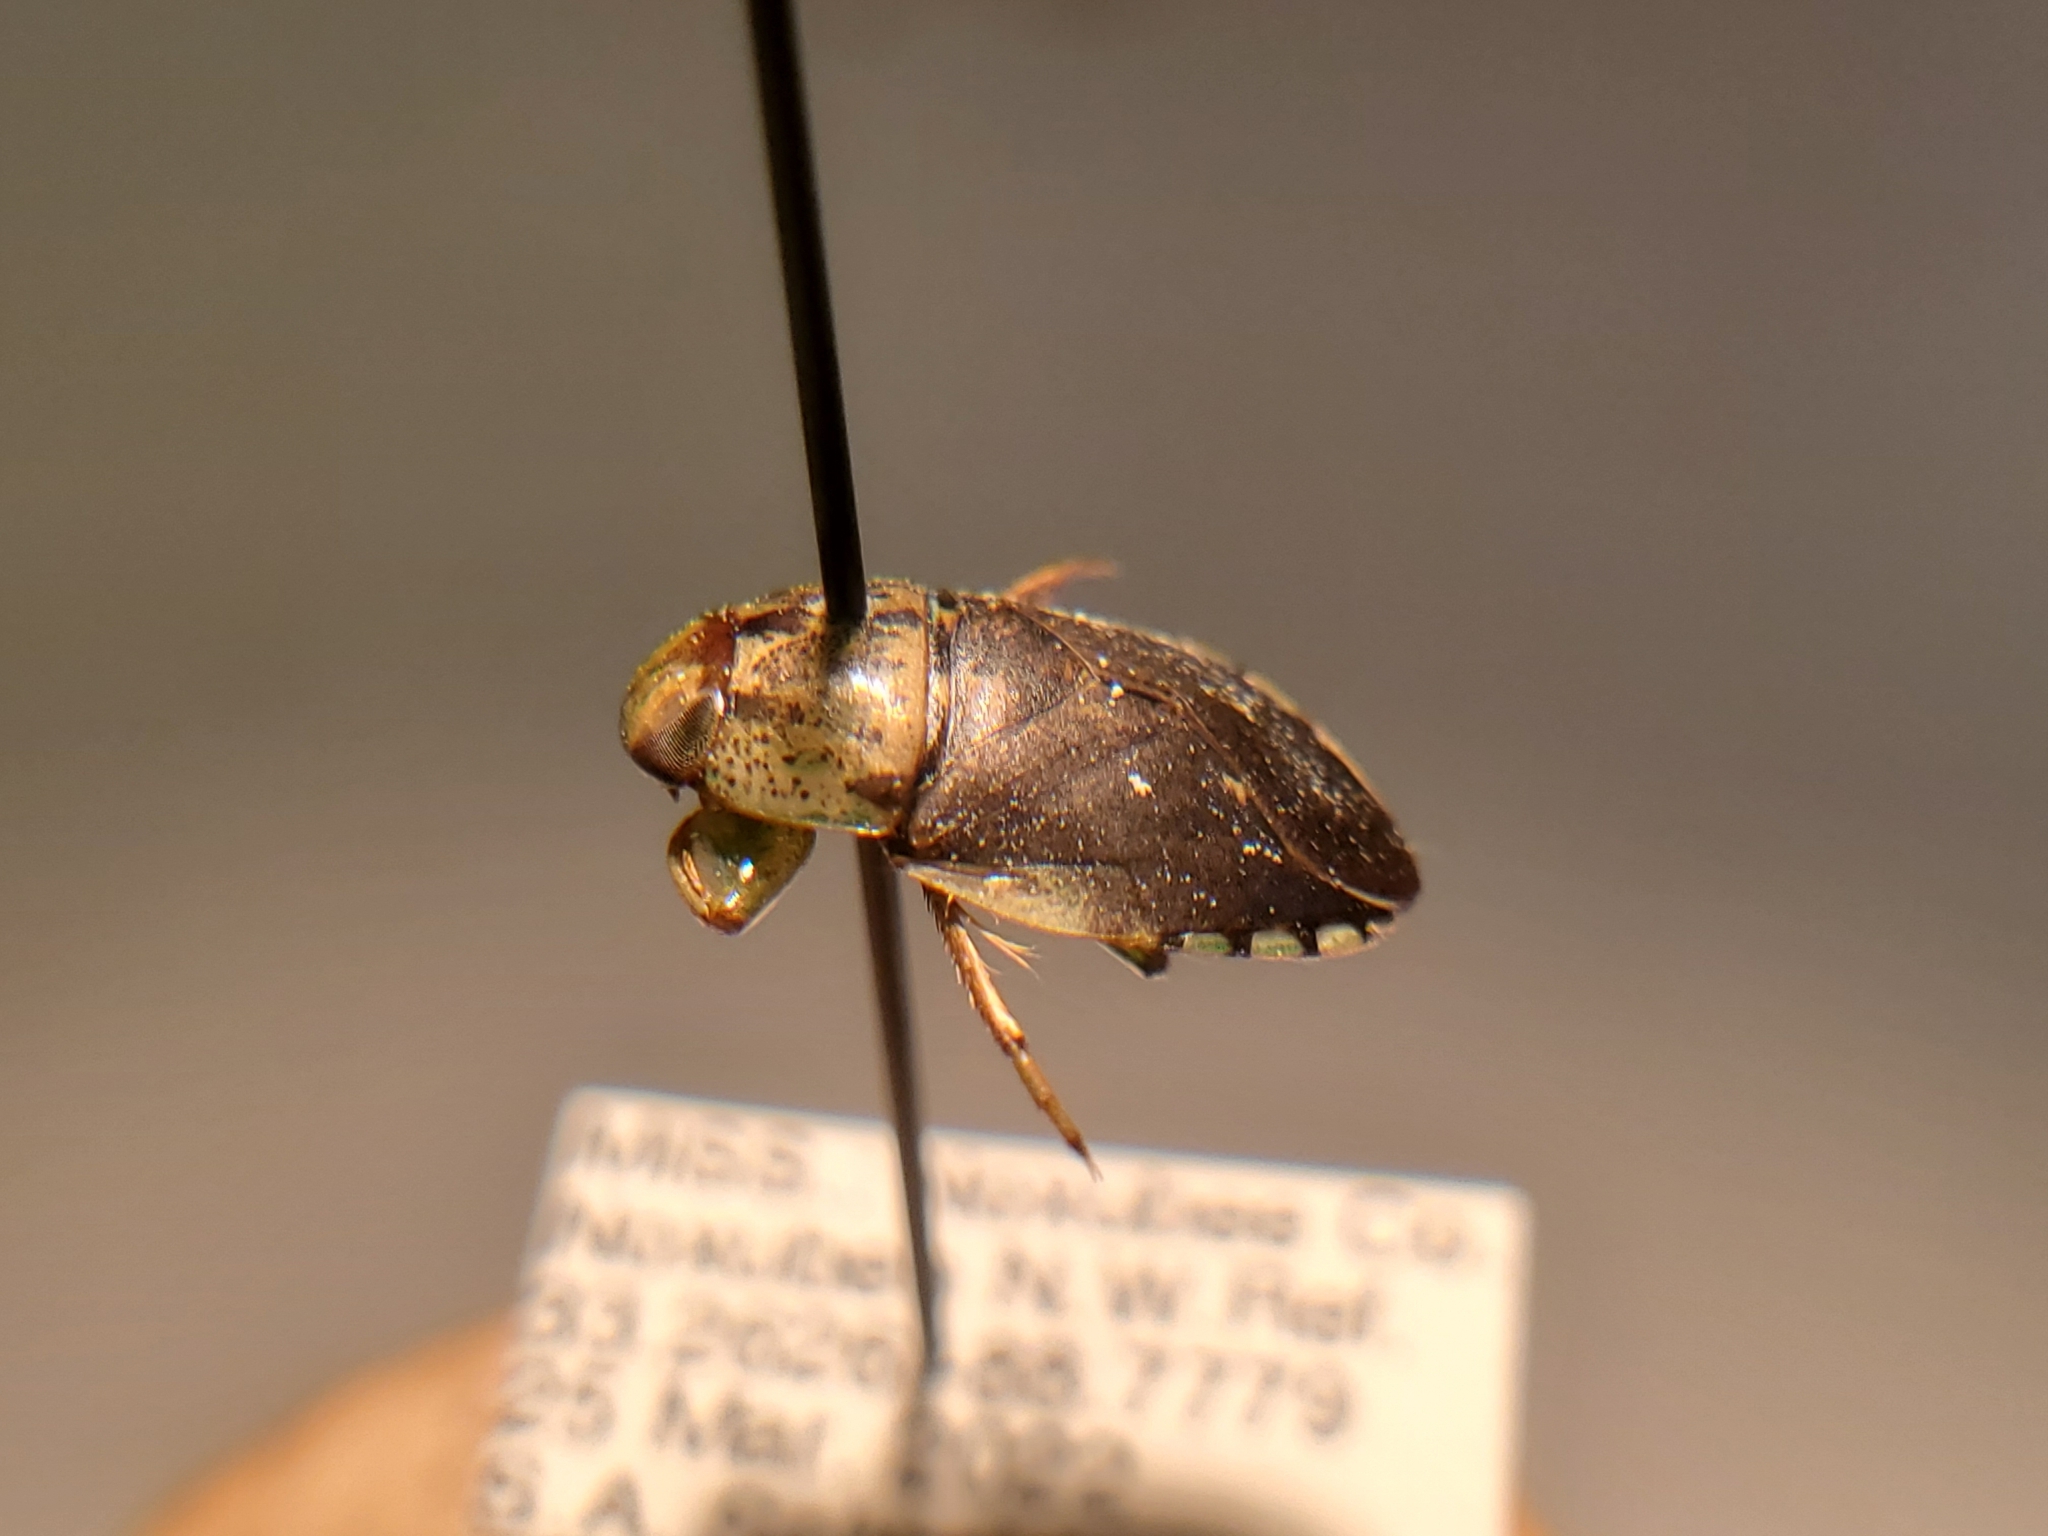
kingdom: Animalia
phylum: Arthropoda
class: Insecta
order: Hemiptera
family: Naucoridae
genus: Pelocoris
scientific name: Pelocoris
